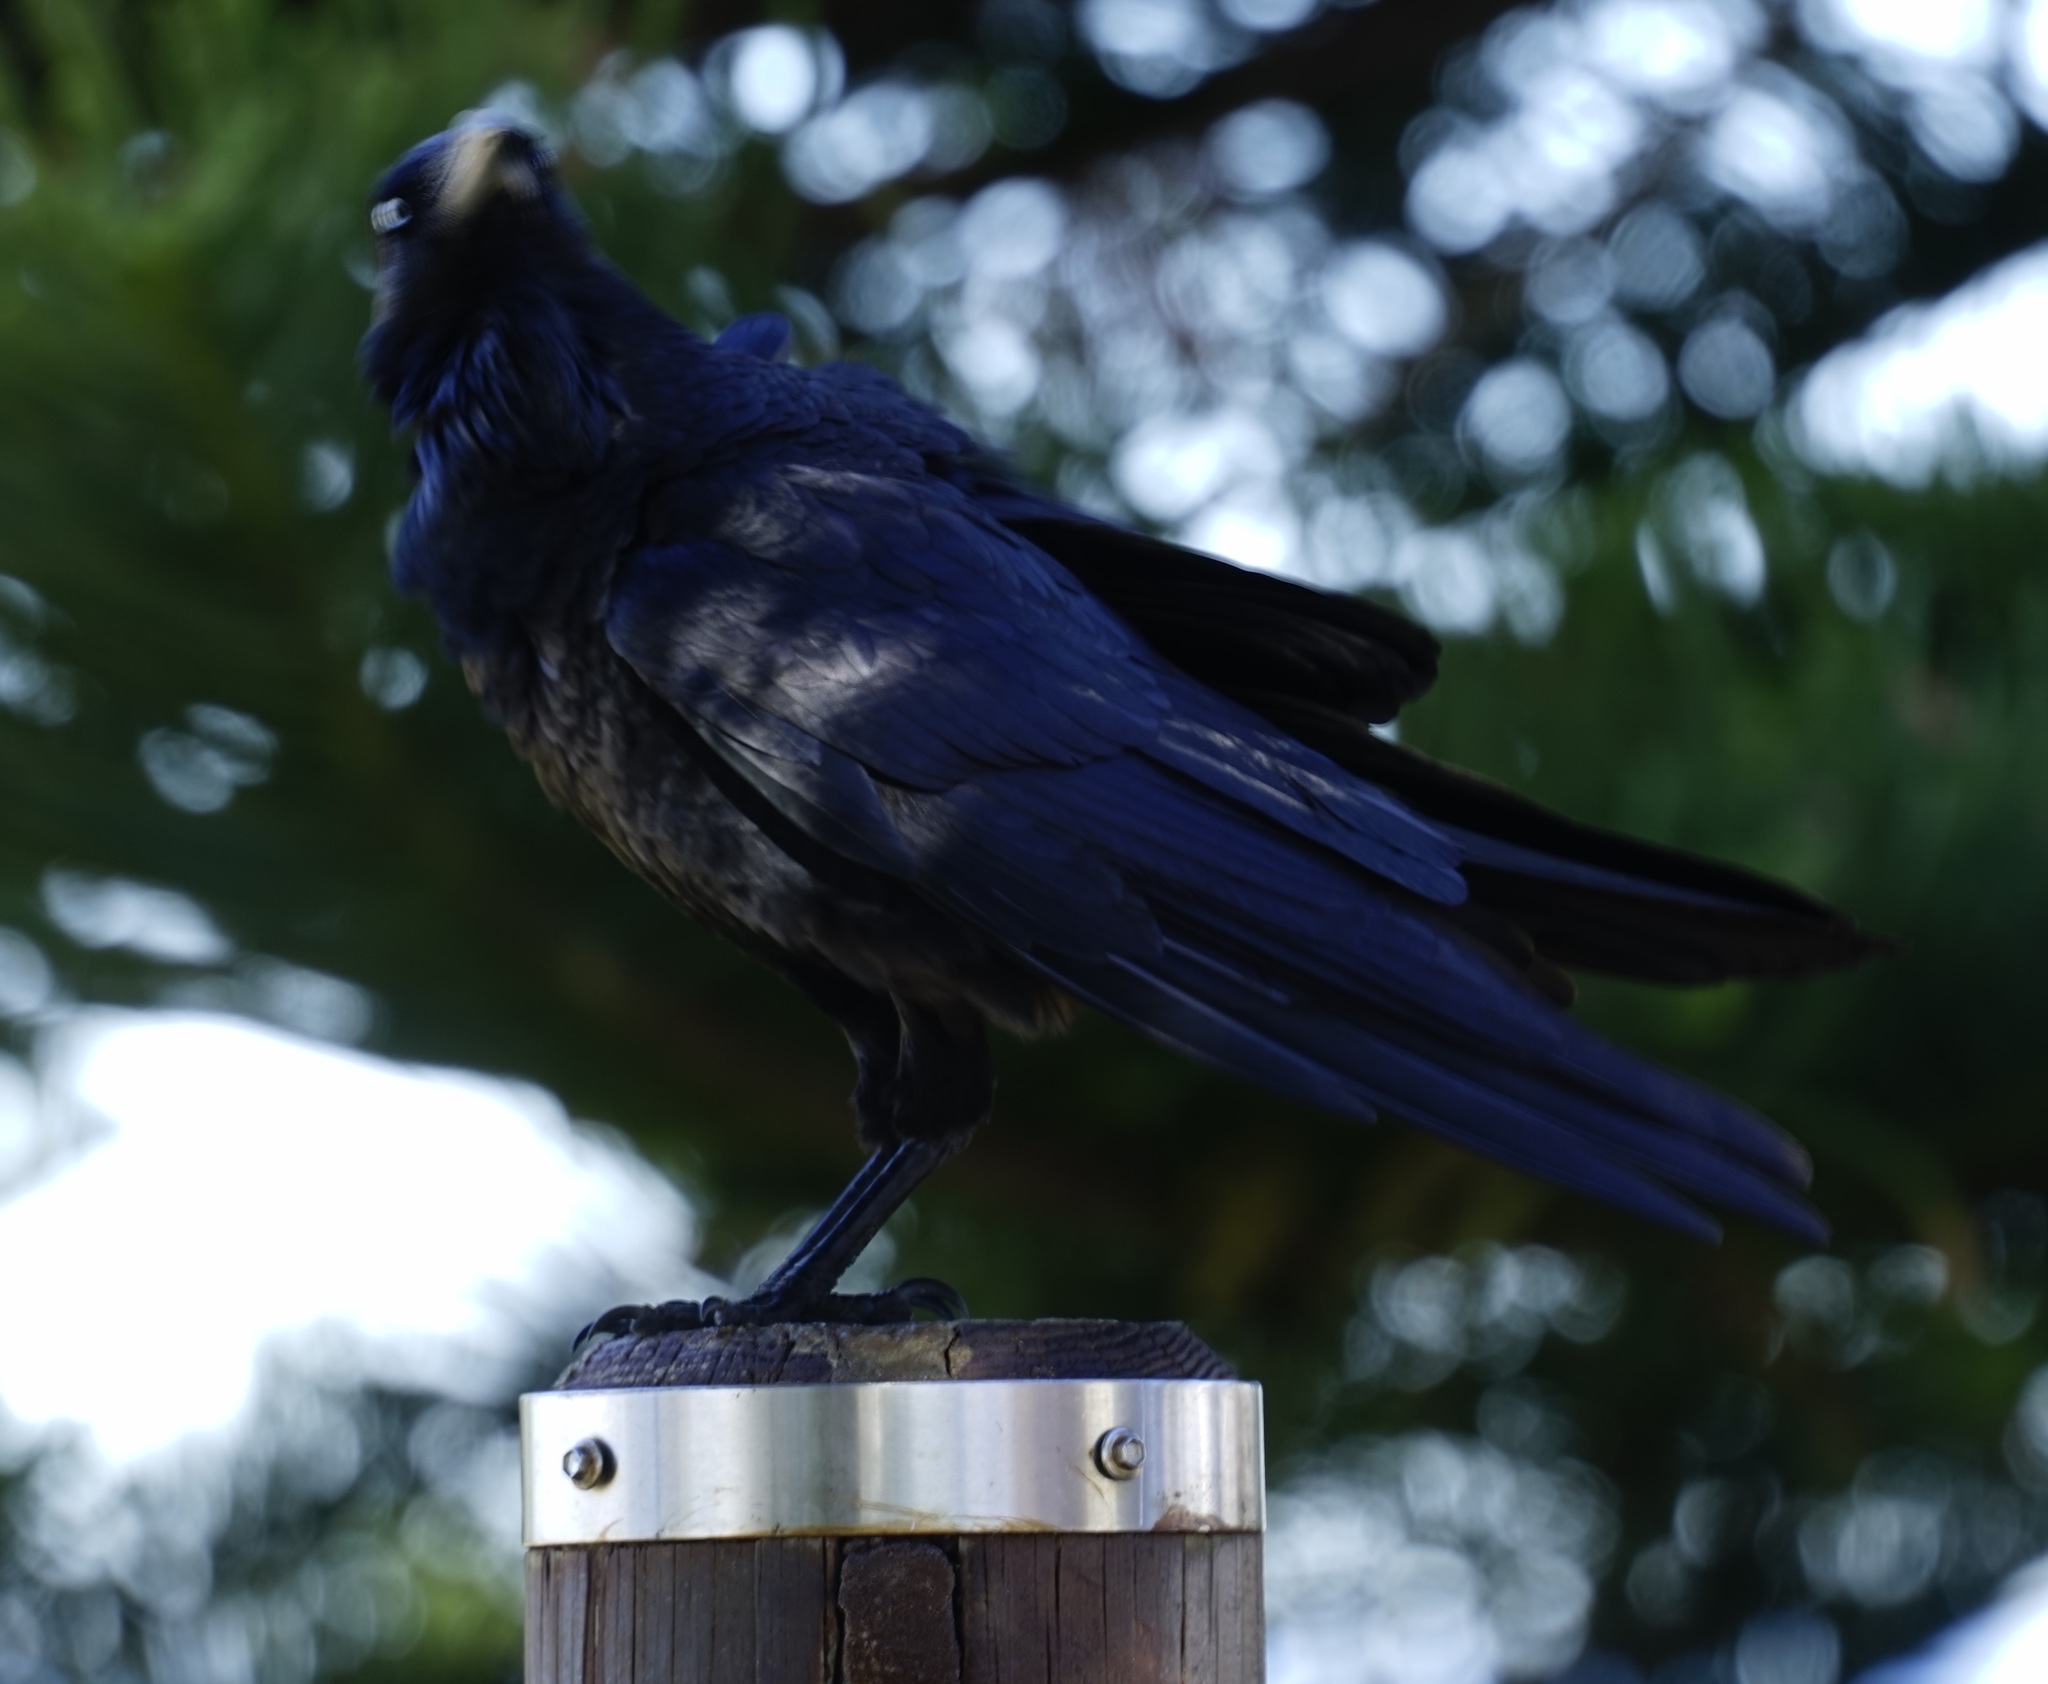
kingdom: Animalia
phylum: Chordata
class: Aves
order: Passeriformes
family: Corvidae
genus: Corvus
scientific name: Corvus coronoides
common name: Australian raven
